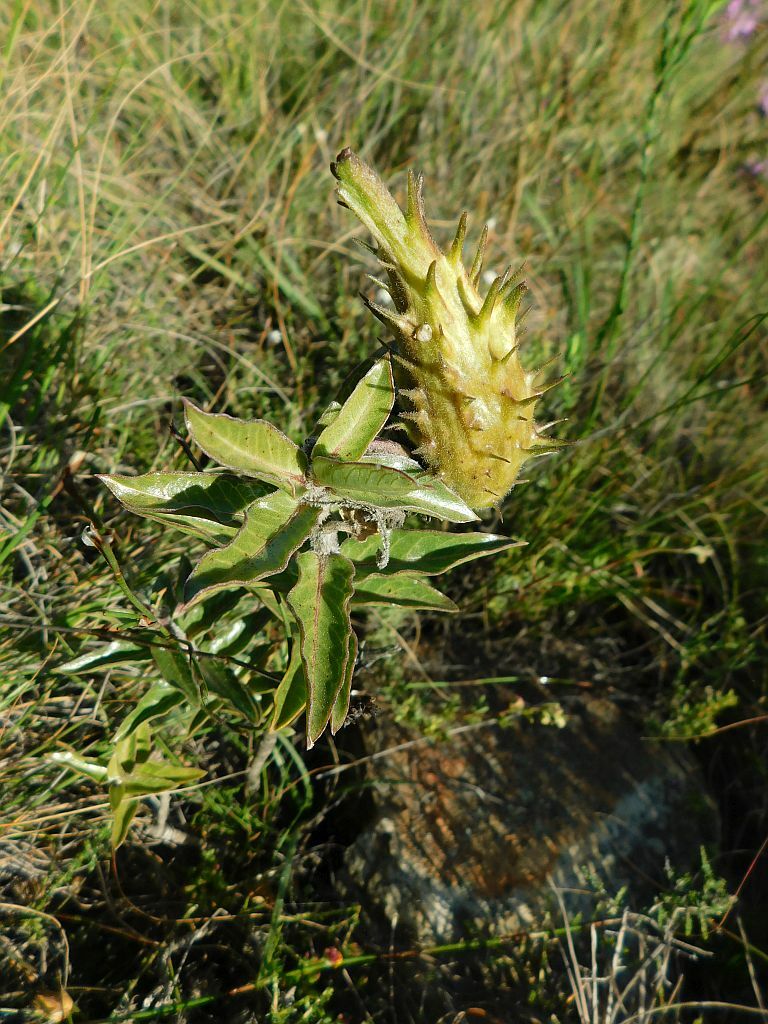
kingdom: Plantae
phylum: Tracheophyta
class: Magnoliopsida
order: Gentianales
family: Apocynaceae
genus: Gomphocarpus
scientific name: Gomphocarpus cancellatus
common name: Wild cotton
